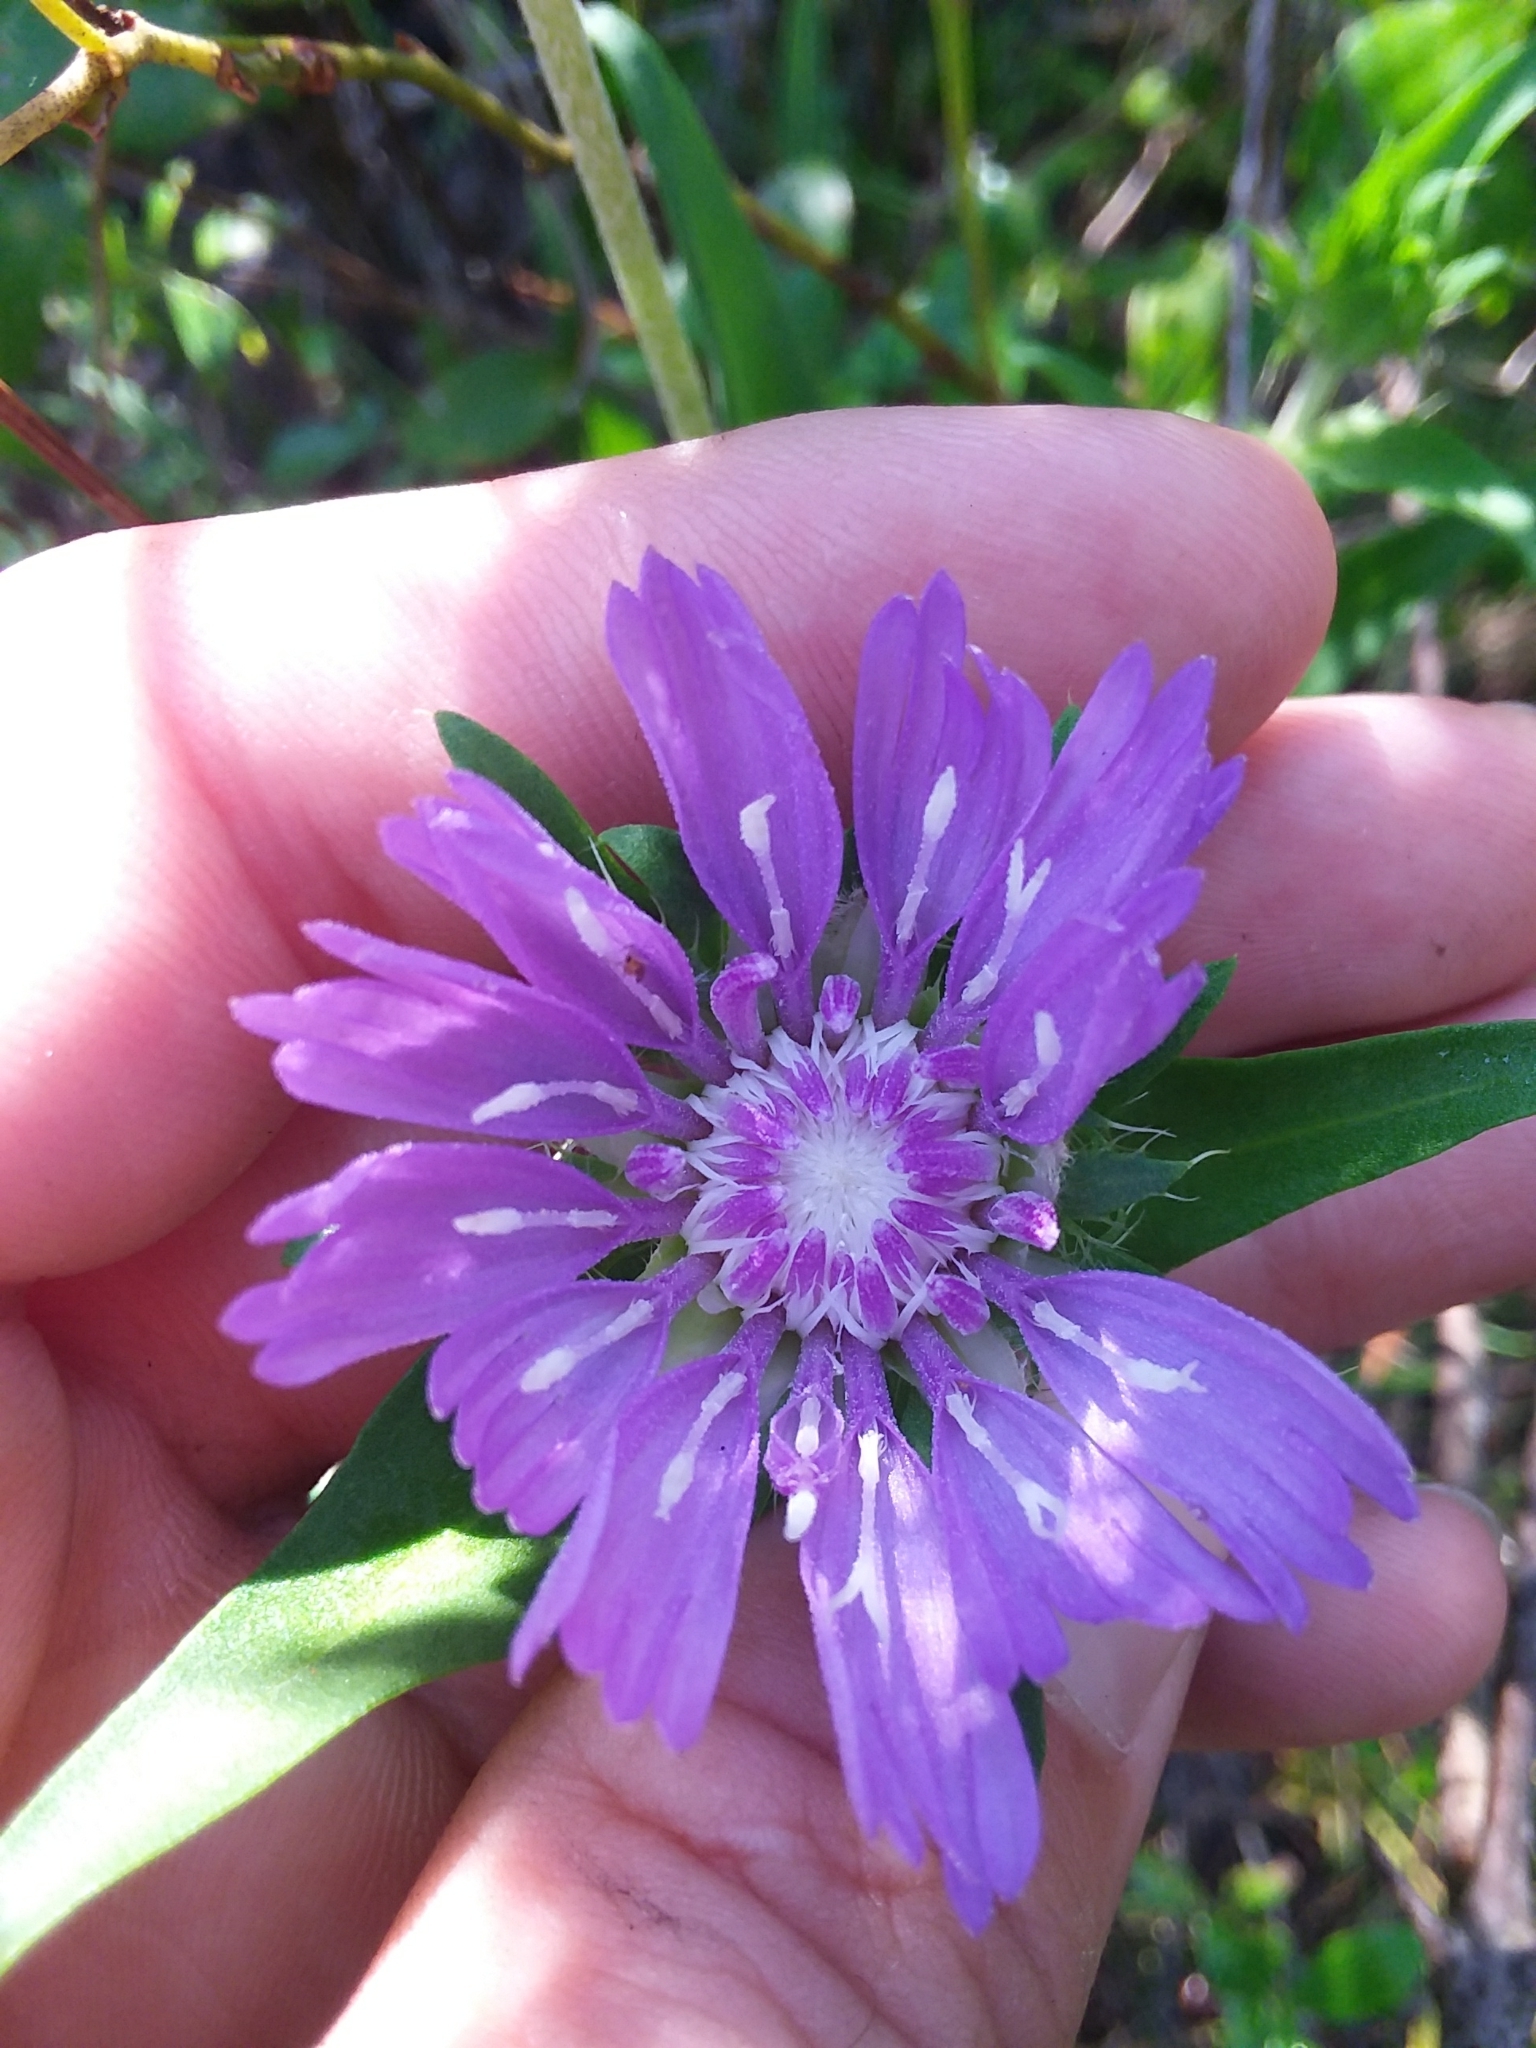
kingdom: Plantae
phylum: Tracheophyta
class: Magnoliopsida
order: Asterales
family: Asteraceae
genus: Stokesia
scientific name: Stokesia laevis
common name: Stokes'-aster
